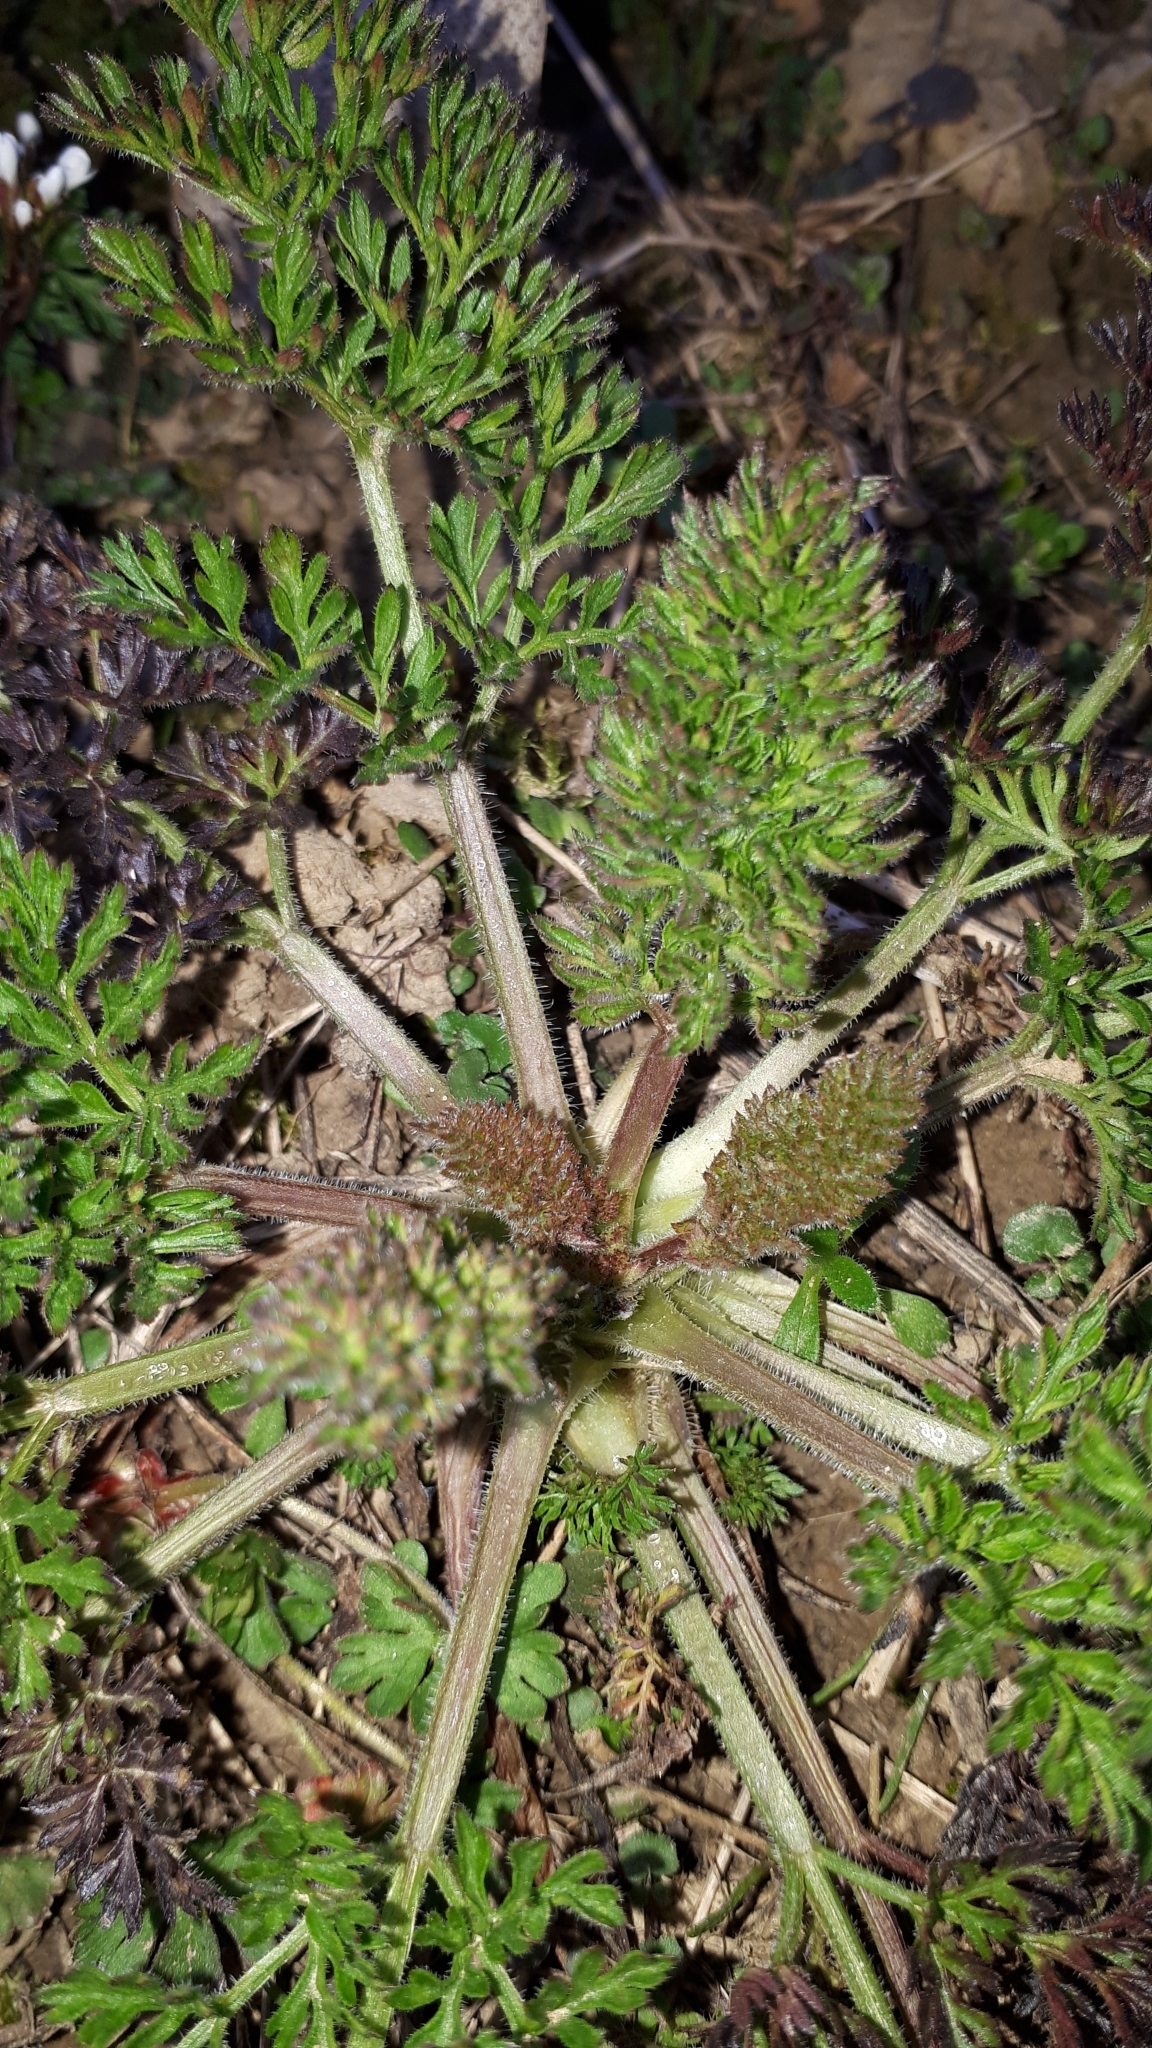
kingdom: Plantae
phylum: Tracheophyta
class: Magnoliopsida
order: Apiales
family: Apiaceae
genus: Daucus
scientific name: Daucus carota
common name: Wild carrot
